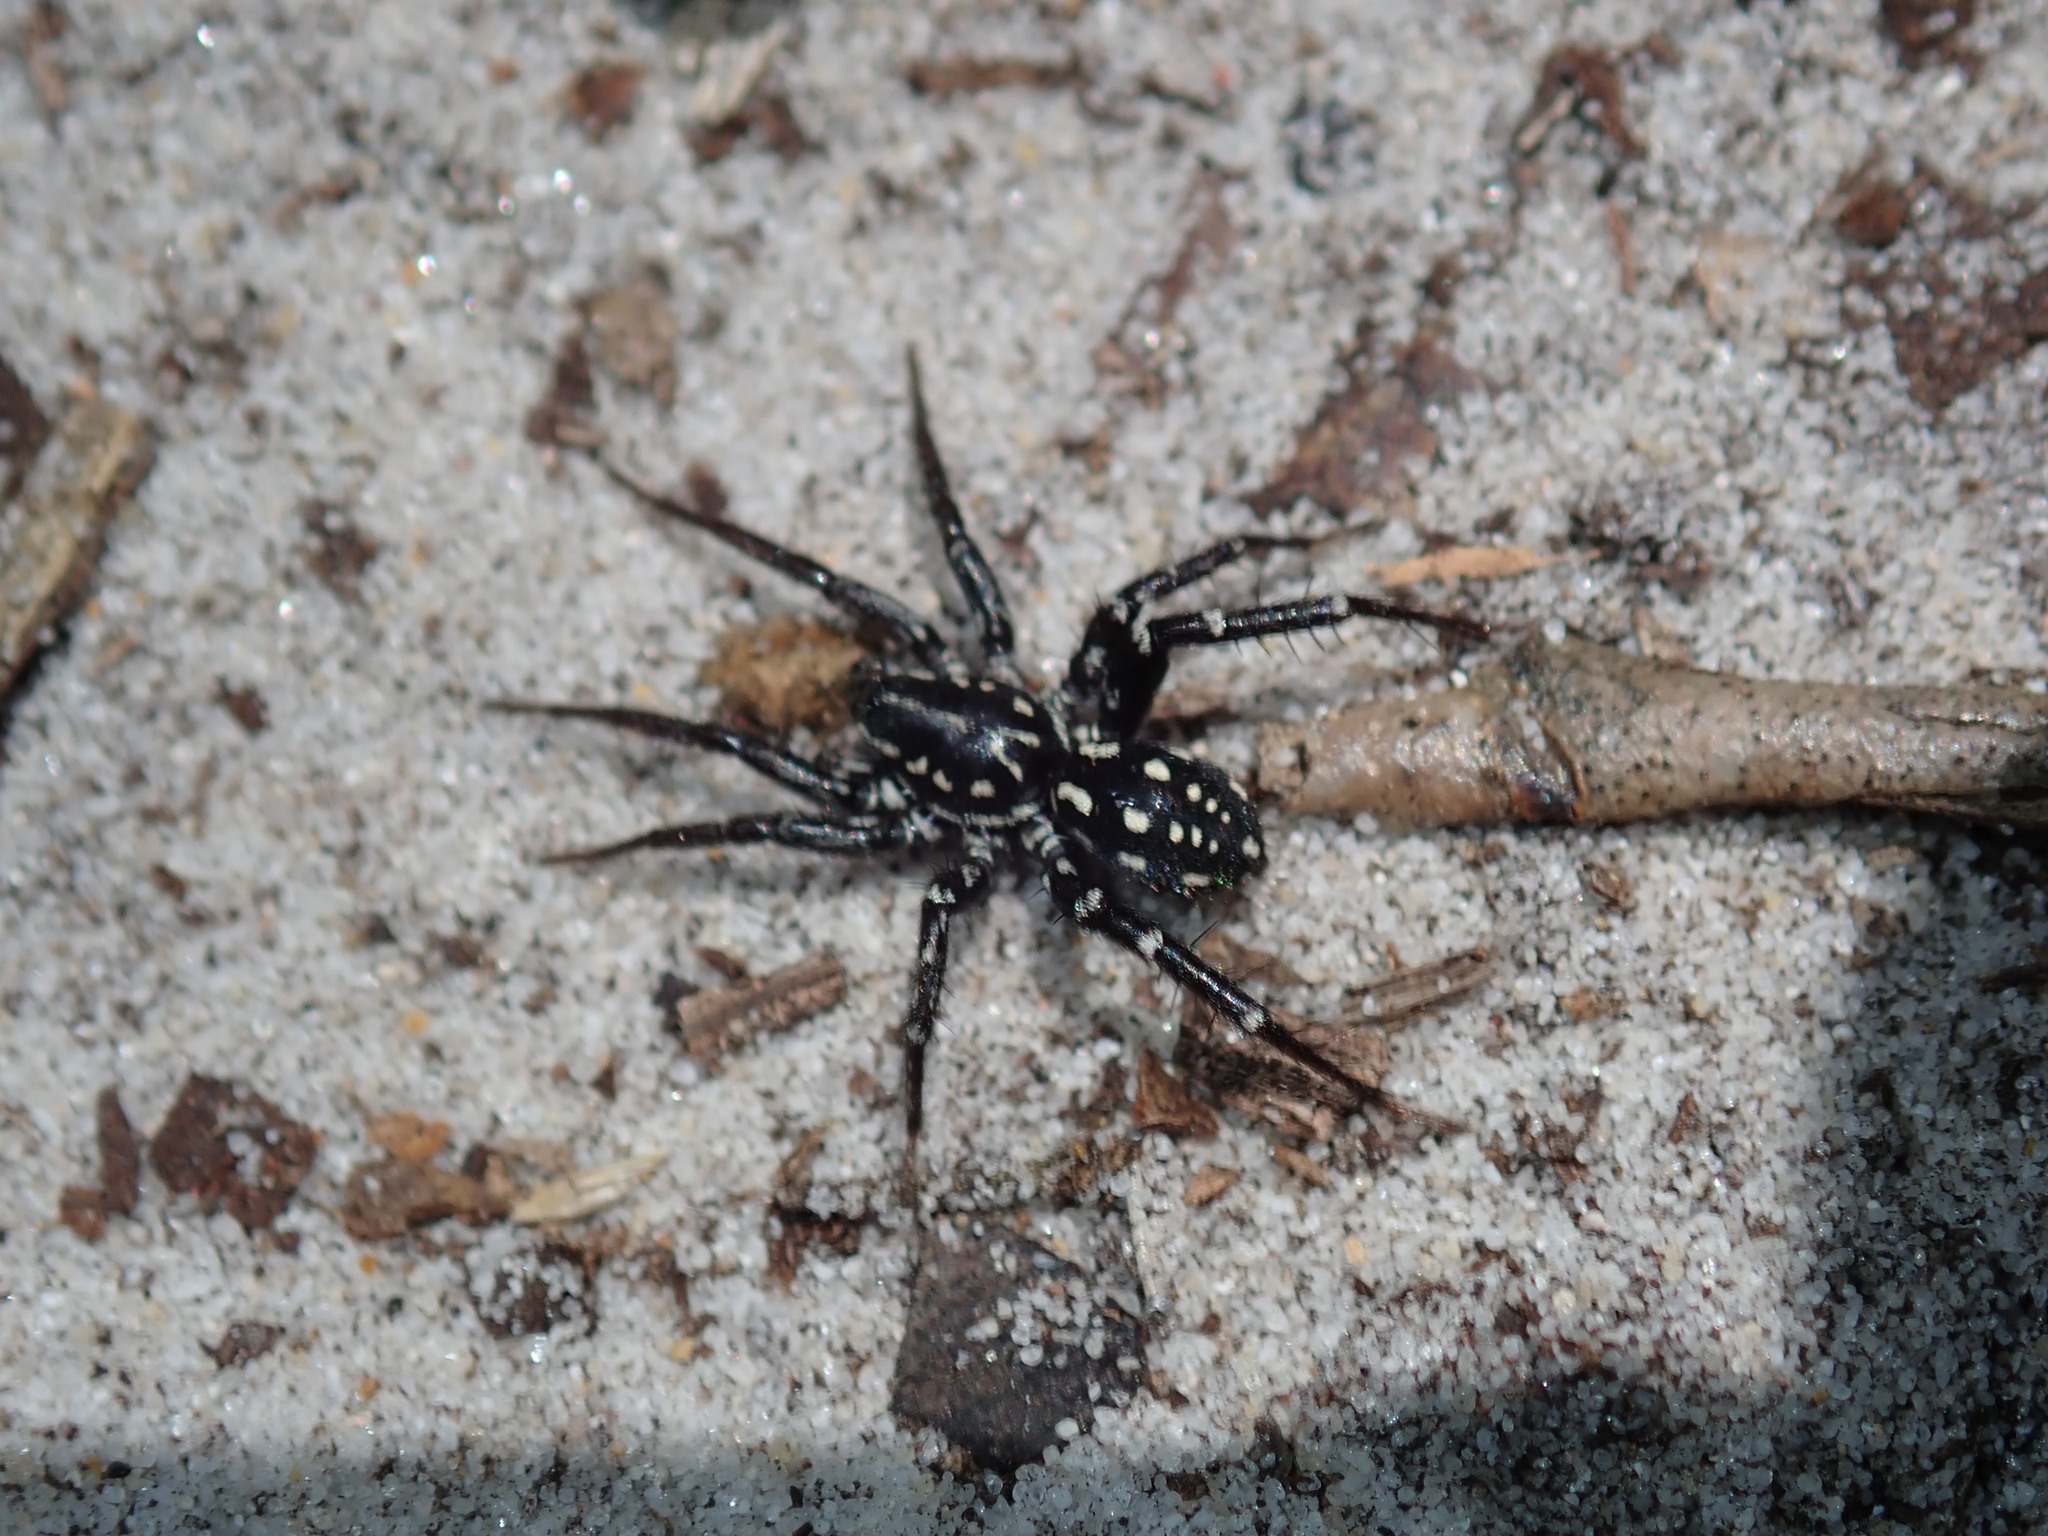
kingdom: Animalia
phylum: Arthropoda
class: Arachnida
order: Araneae
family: Corinnidae
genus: Nyssus
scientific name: Nyssus albopunctatus
